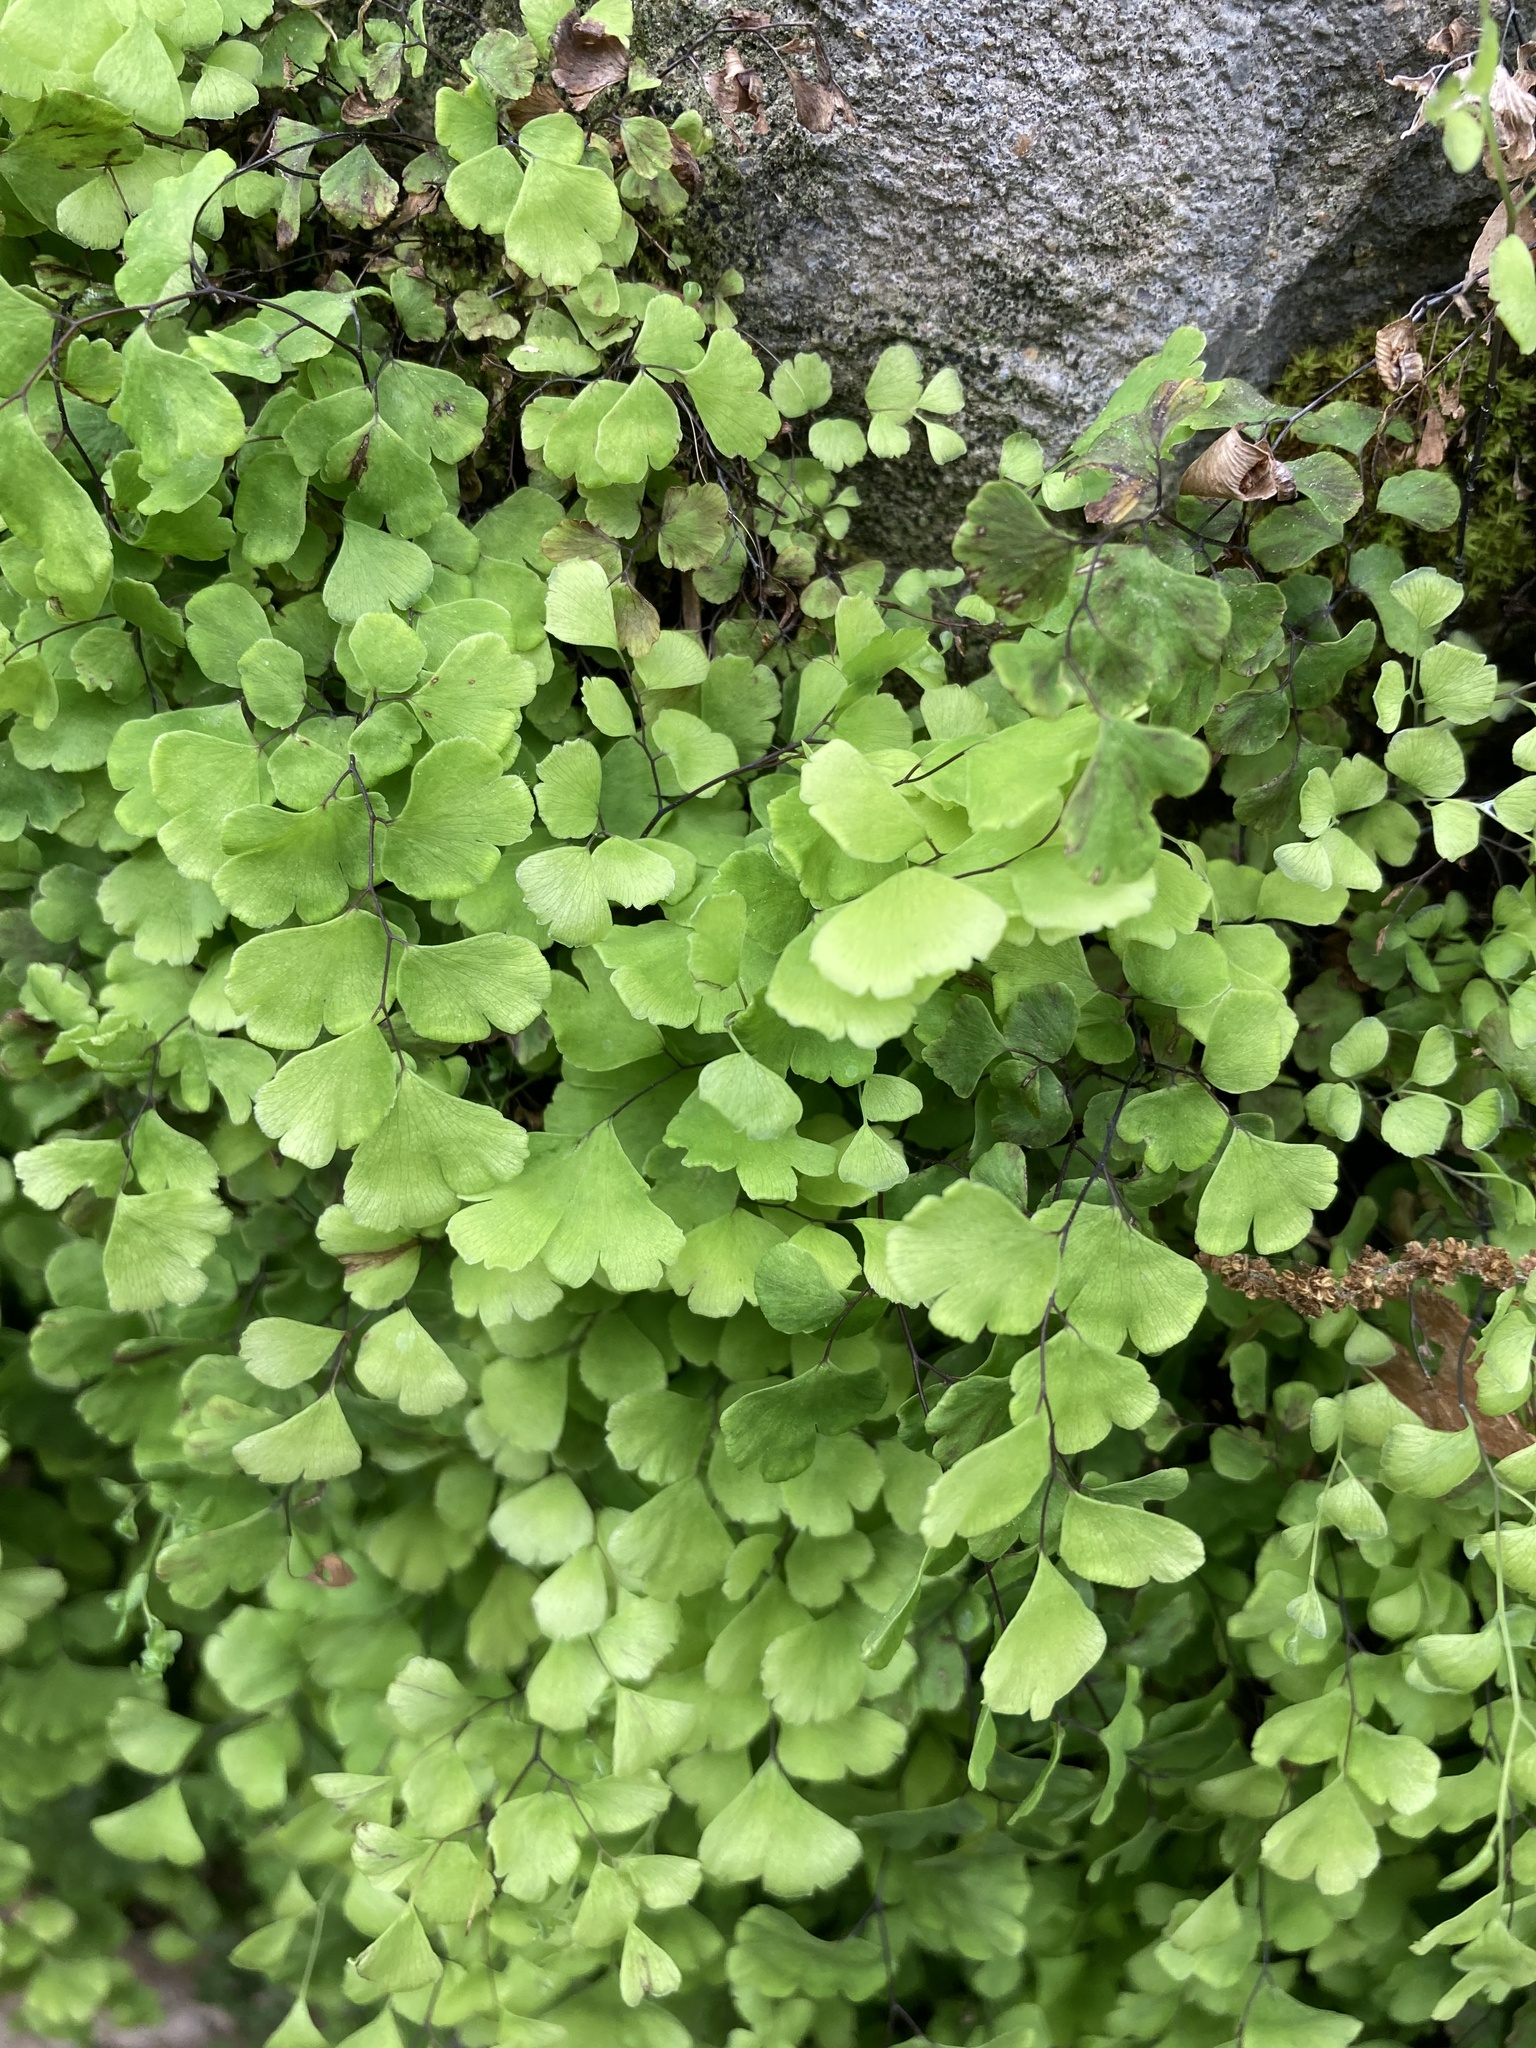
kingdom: Plantae
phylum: Tracheophyta
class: Polypodiopsida
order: Polypodiales
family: Pteridaceae
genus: Adiantum
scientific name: Adiantum capillus-veneris
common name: Maidenhair fern
